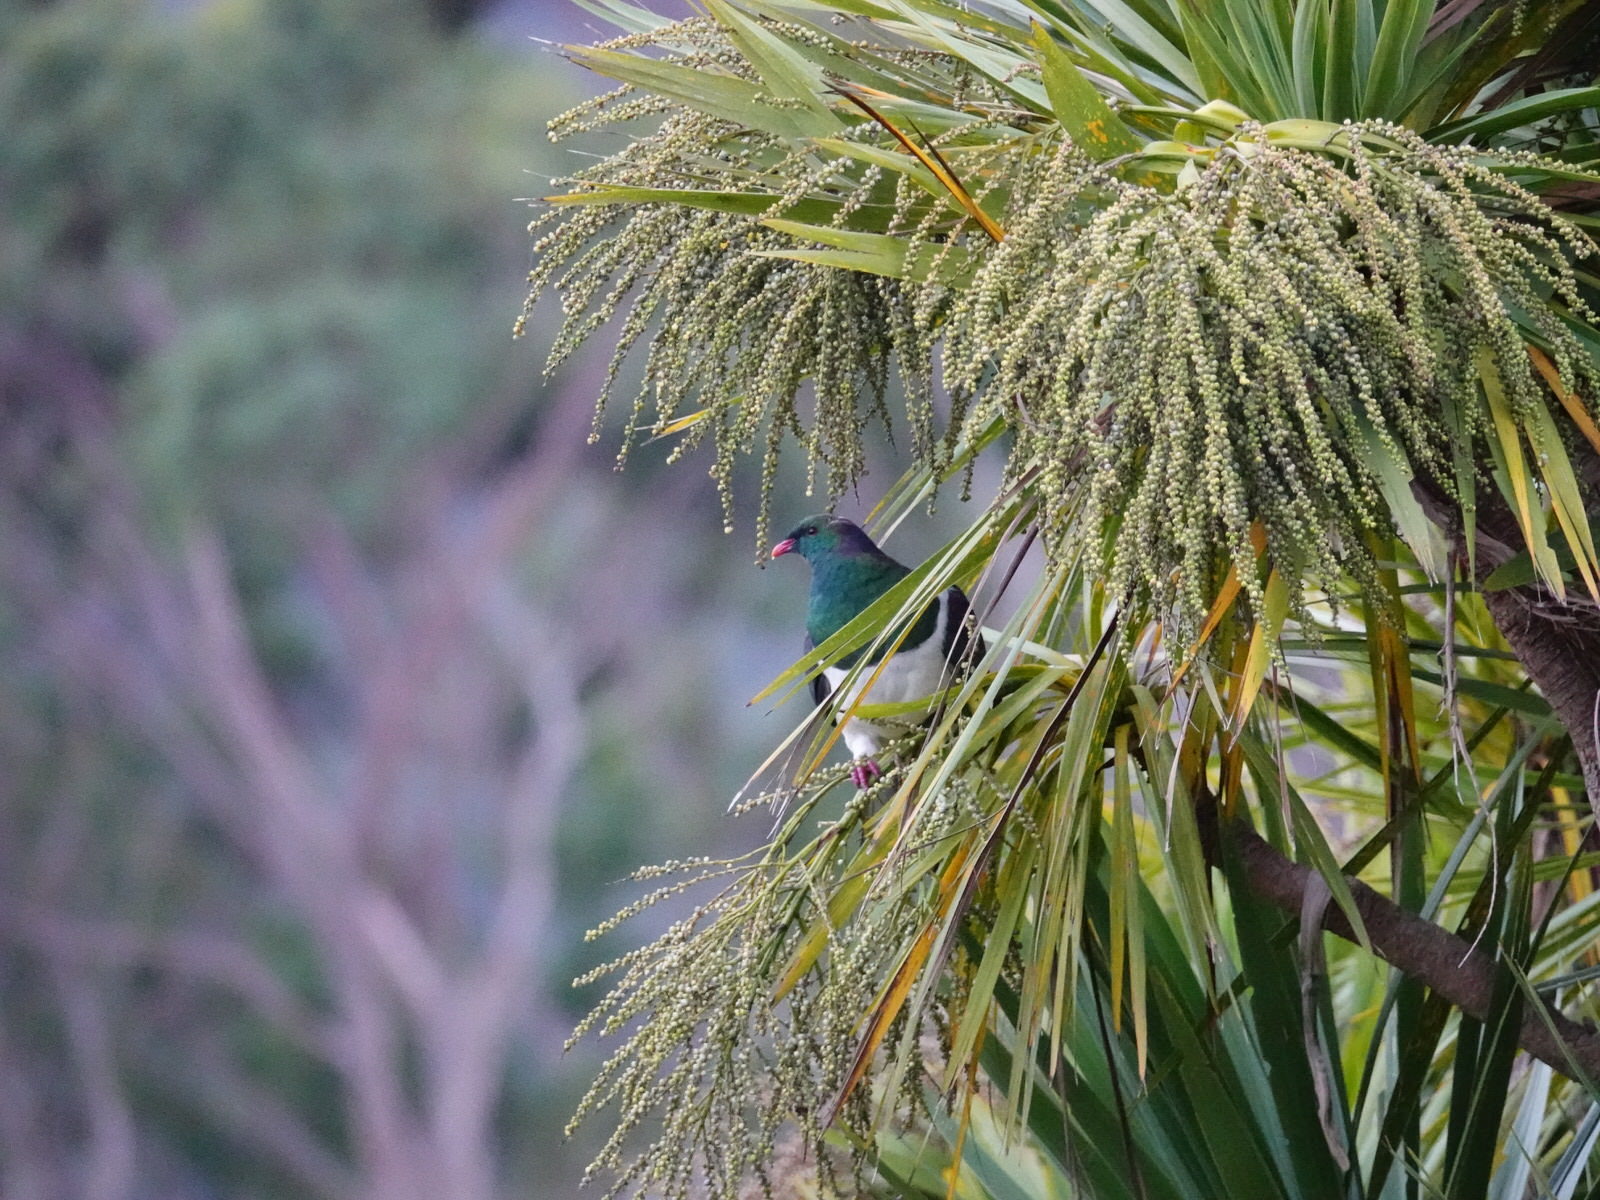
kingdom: Animalia
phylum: Chordata
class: Aves
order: Columbiformes
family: Columbidae
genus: Hemiphaga
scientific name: Hemiphaga novaeseelandiae
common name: New zealand pigeon
